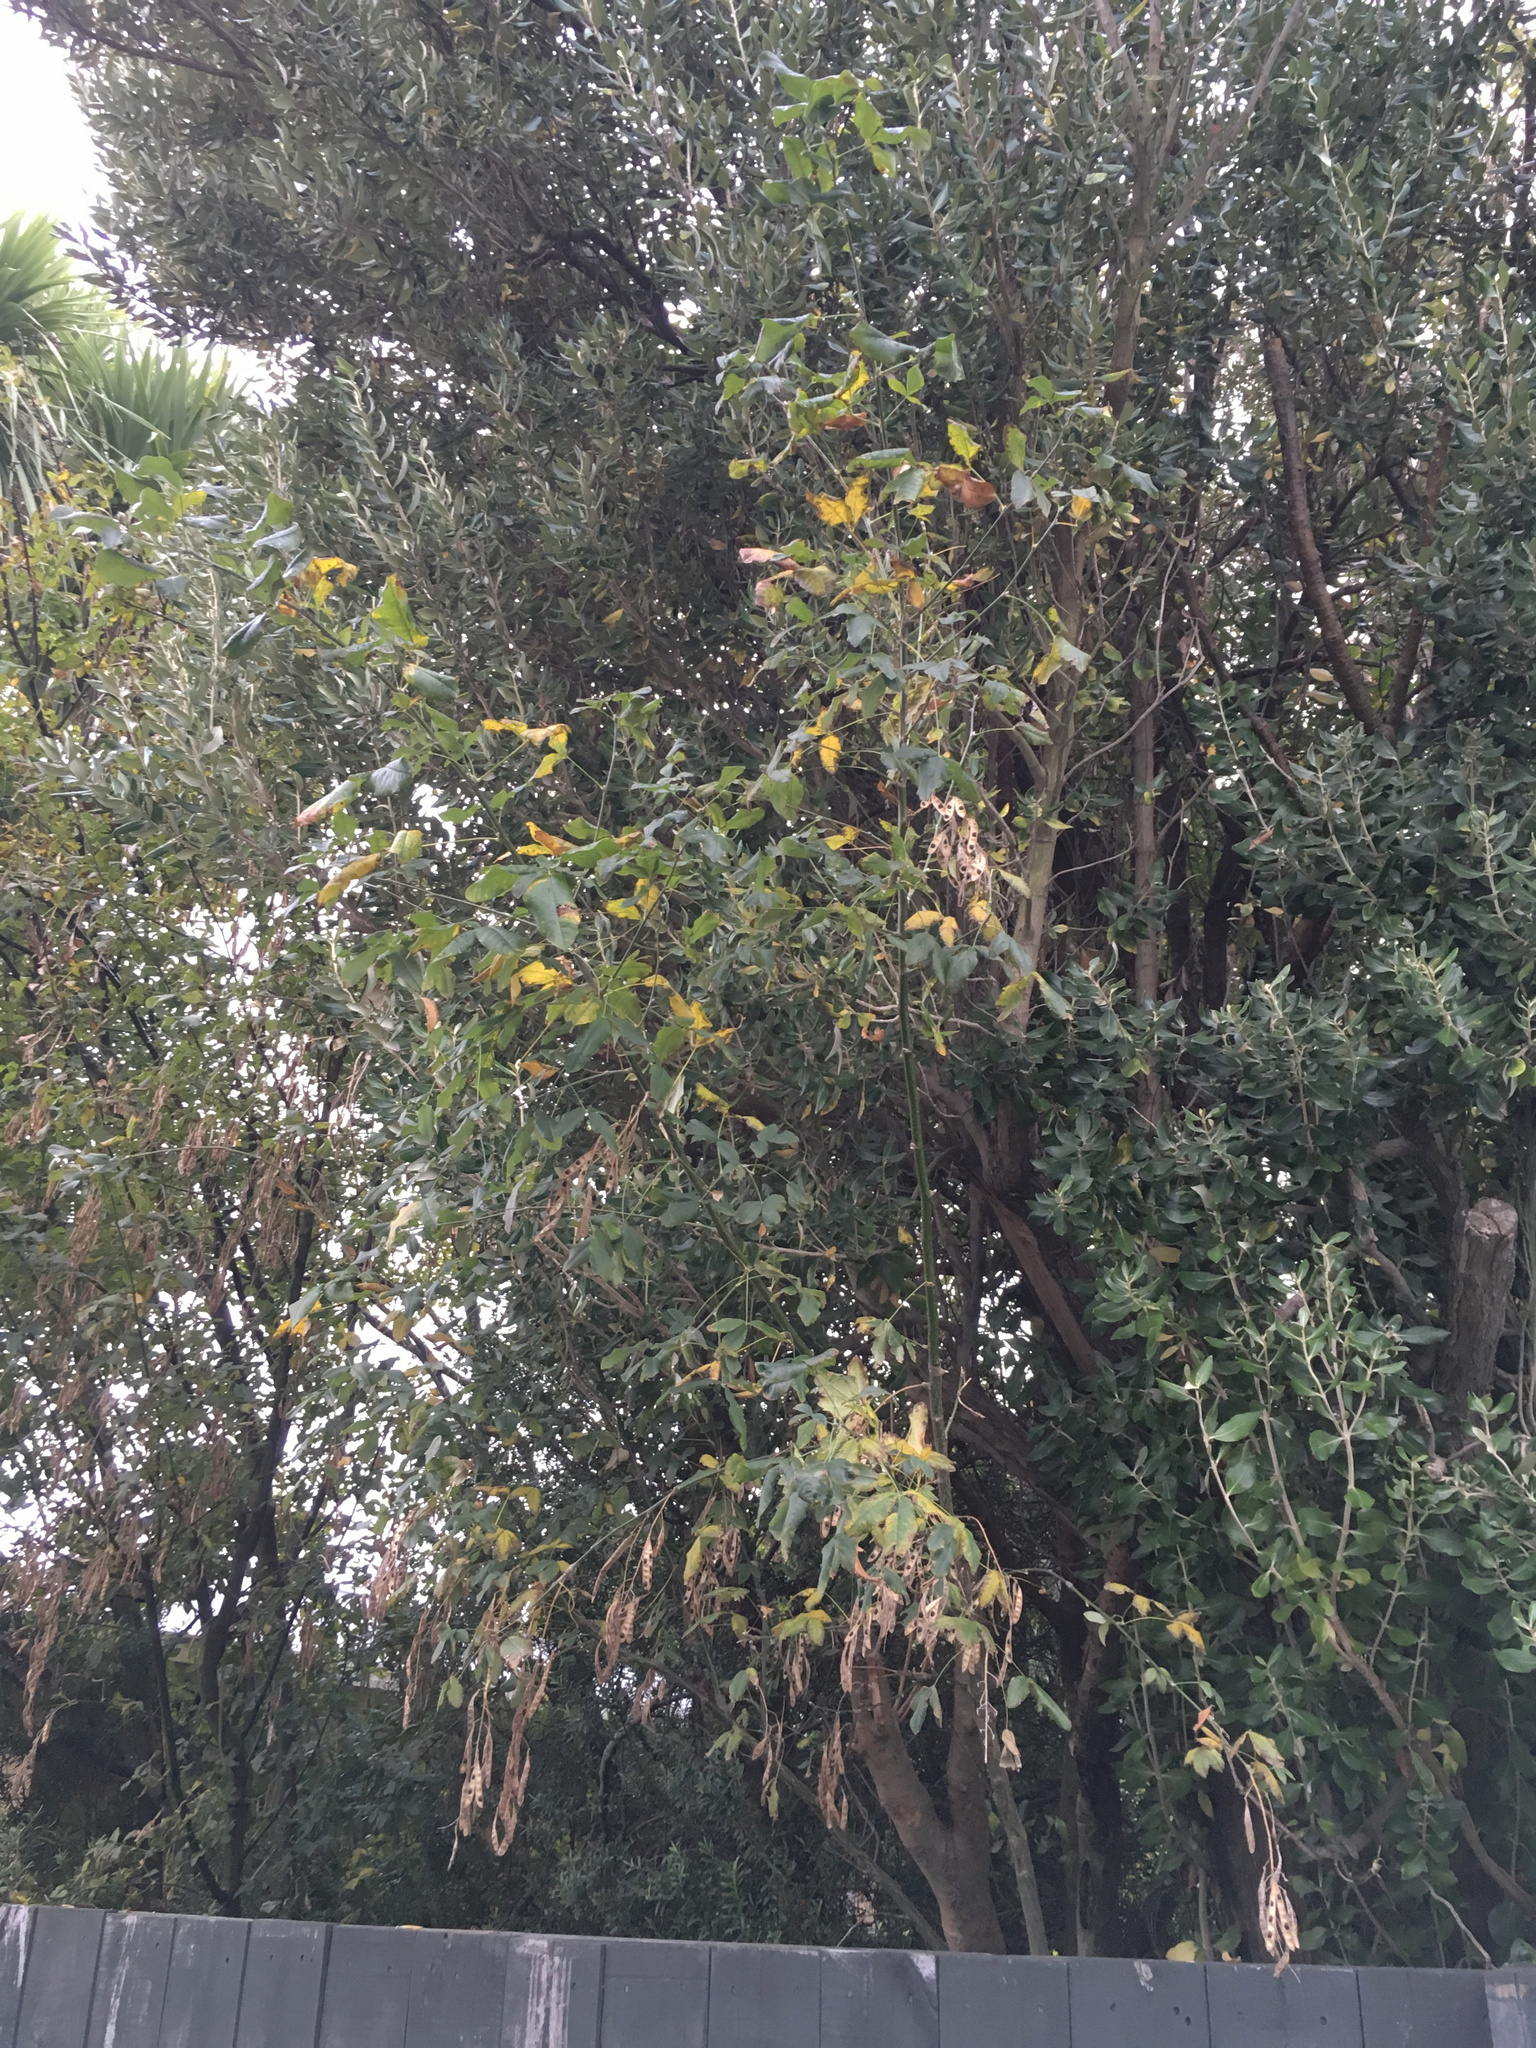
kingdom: Plantae
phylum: Tracheophyta
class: Magnoliopsida
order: Fabales
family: Fabaceae
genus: Laburnum
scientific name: Laburnum anagyroides
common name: Laburnum
